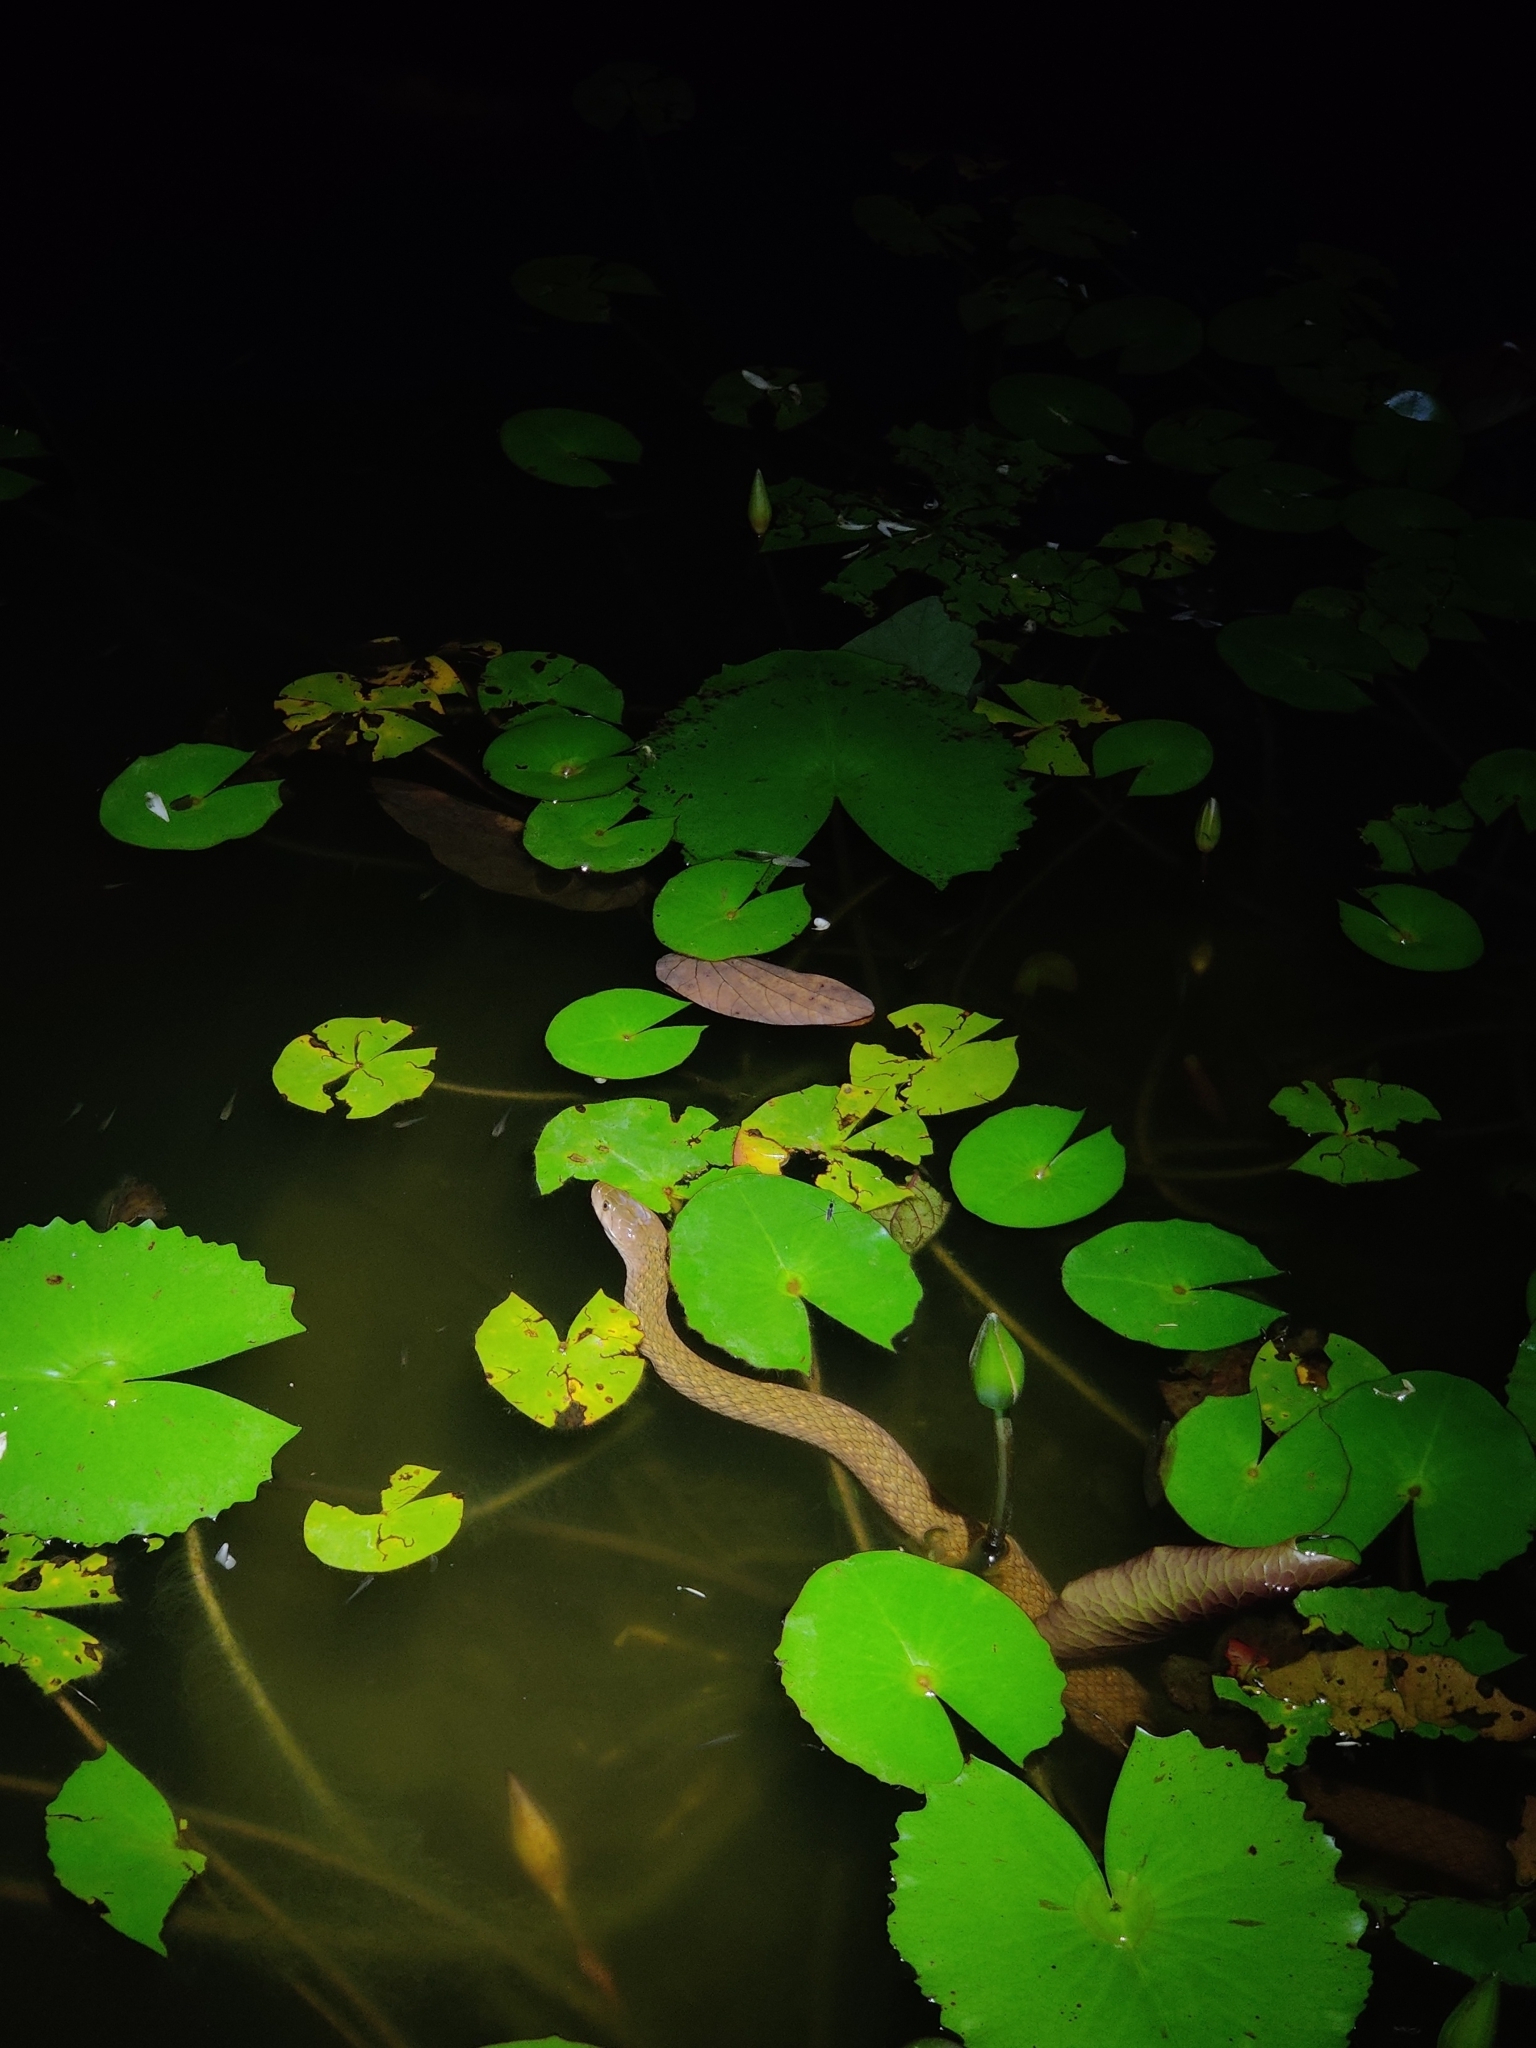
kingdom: Animalia
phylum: Chordata
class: Squamata
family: Colubridae
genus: Fowlea
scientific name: Fowlea piscator
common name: Asiatic water snake
